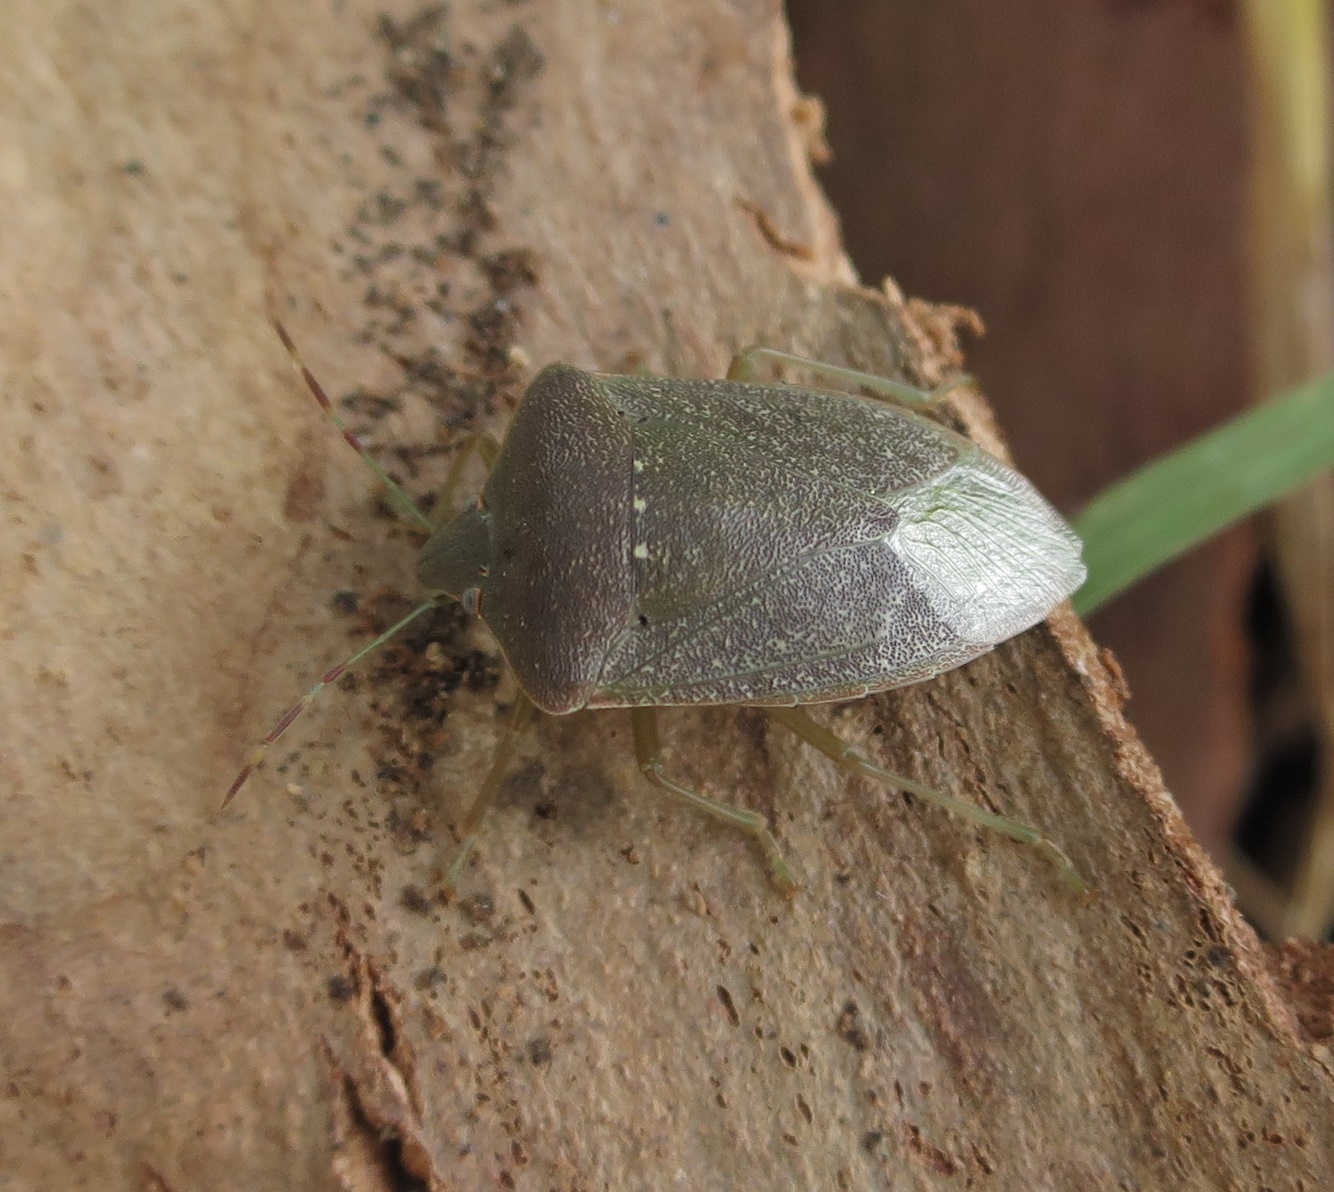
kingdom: Animalia
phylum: Arthropoda
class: Insecta
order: Hemiptera
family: Pentatomidae
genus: Nezara
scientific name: Nezara viridula
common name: Southern green stink bug
